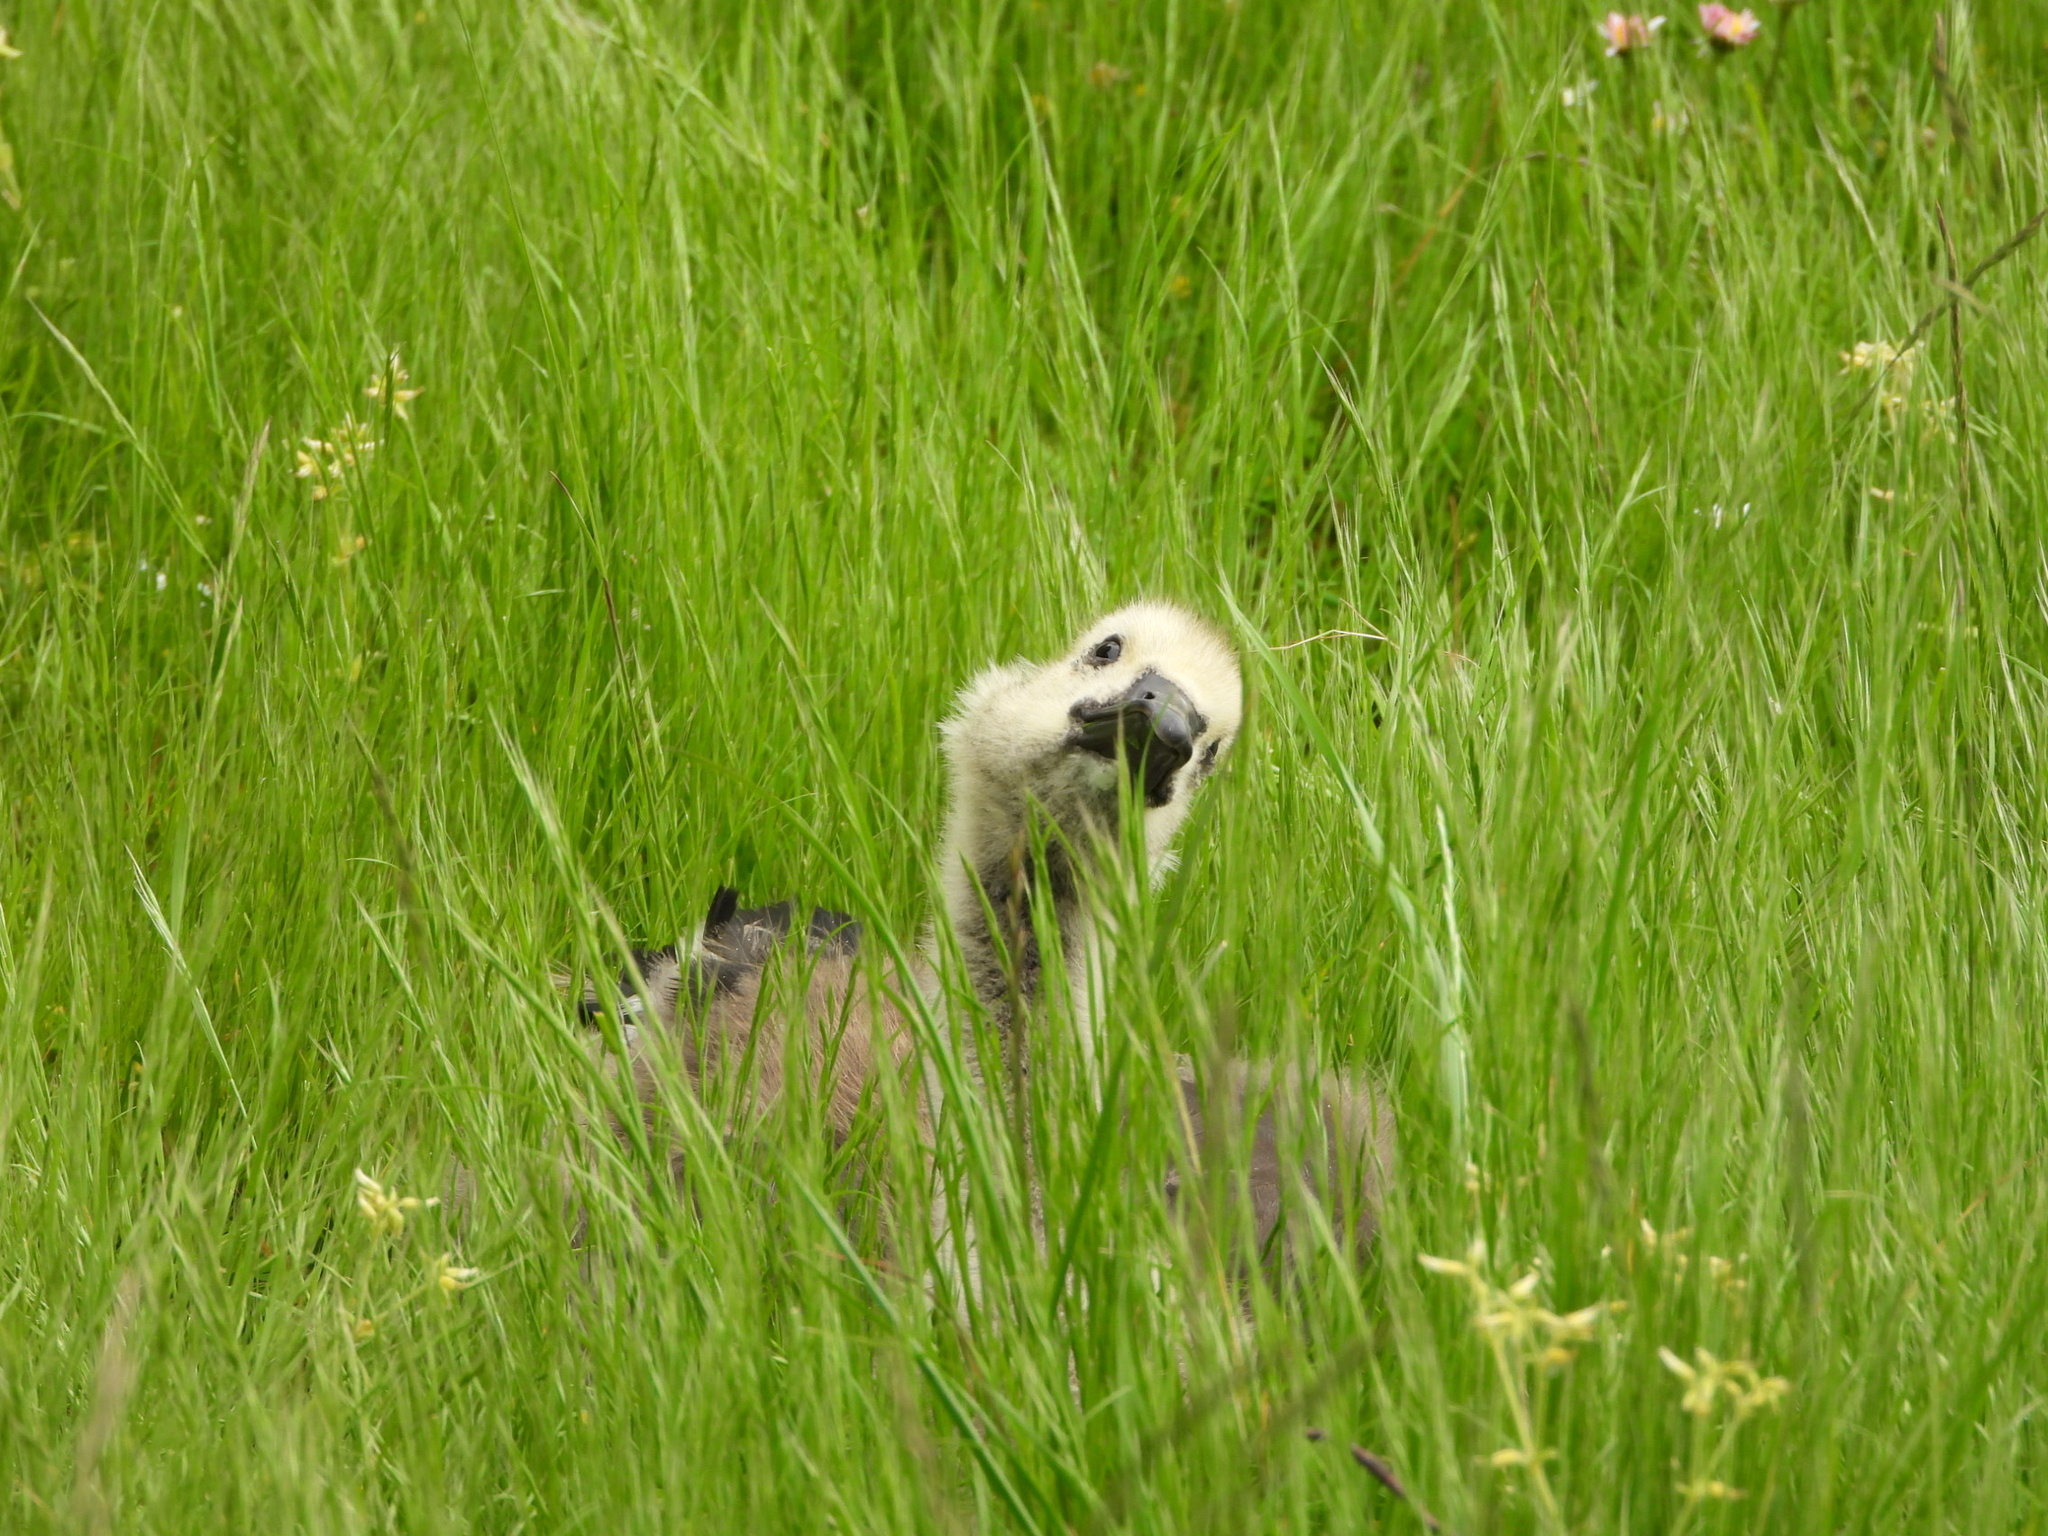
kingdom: Animalia
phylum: Chordata
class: Aves
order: Anseriformes
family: Anatidae
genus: Branta
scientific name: Branta canadensis
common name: Canada goose
